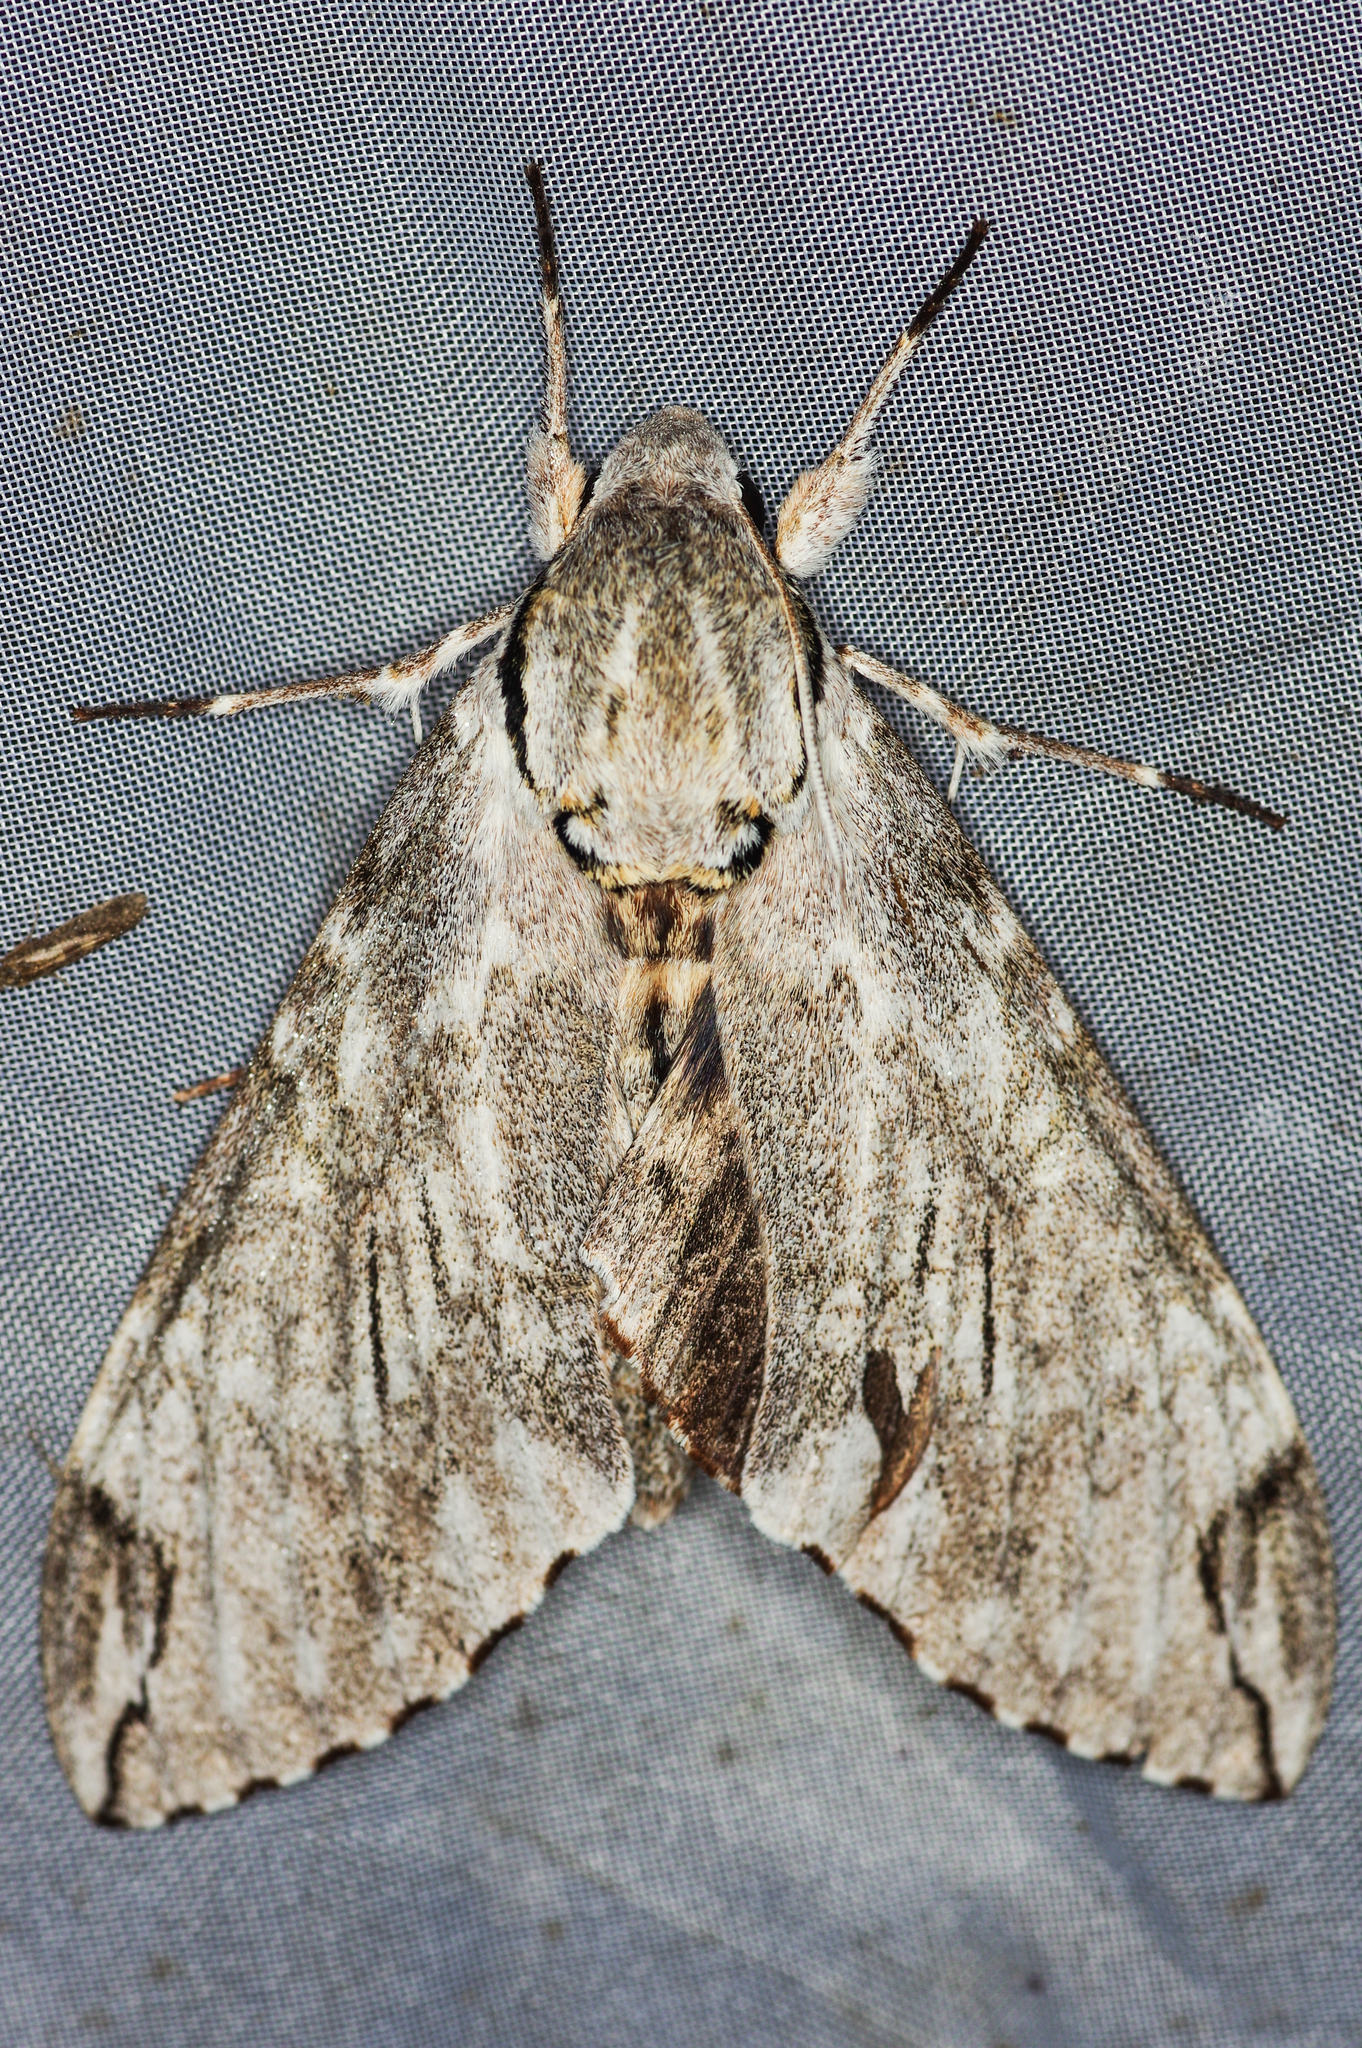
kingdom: Animalia
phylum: Arthropoda
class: Insecta
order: Lepidoptera
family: Sphingidae
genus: Psilogramma
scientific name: Psilogramma lifuense
